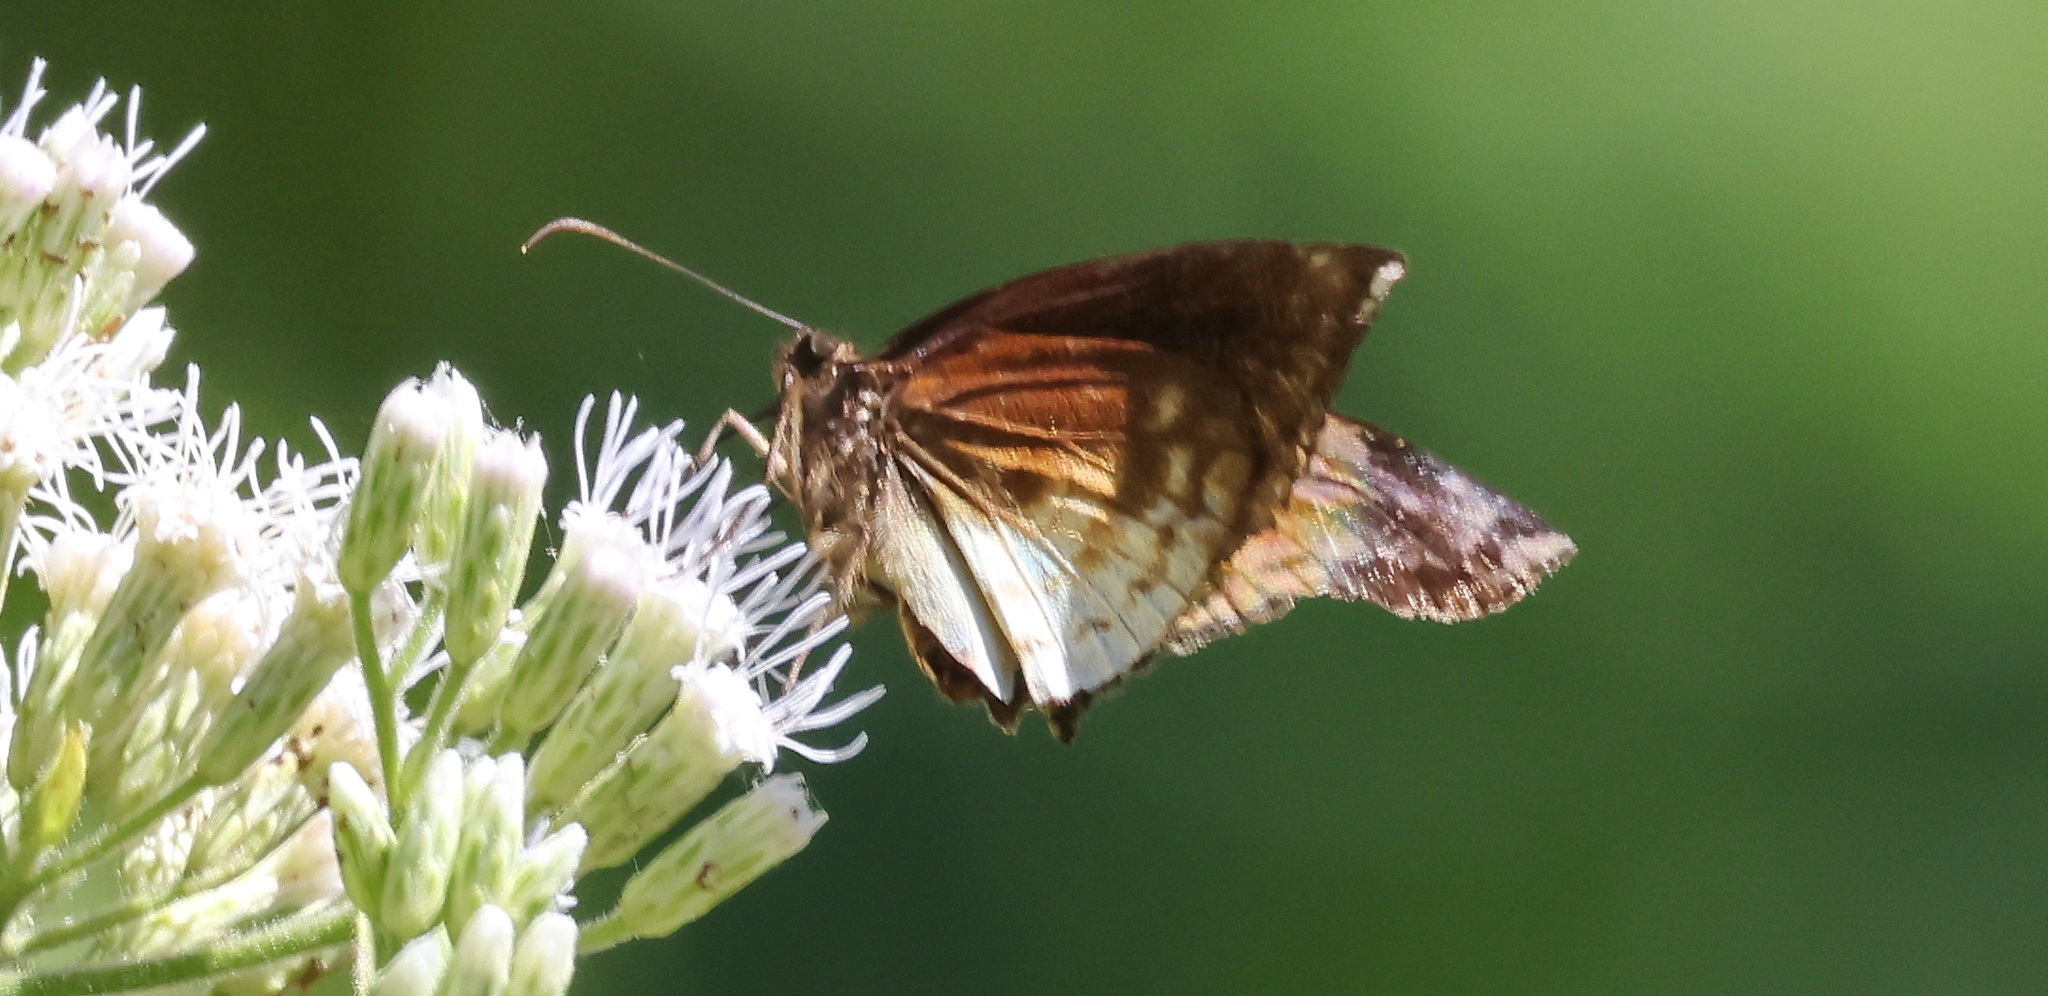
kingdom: Animalia
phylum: Arthropoda
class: Insecta
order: Lepidoptera
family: Hesperiidae
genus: Achlyodes
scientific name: Achlyodes busirus
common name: Giant sicklewing
